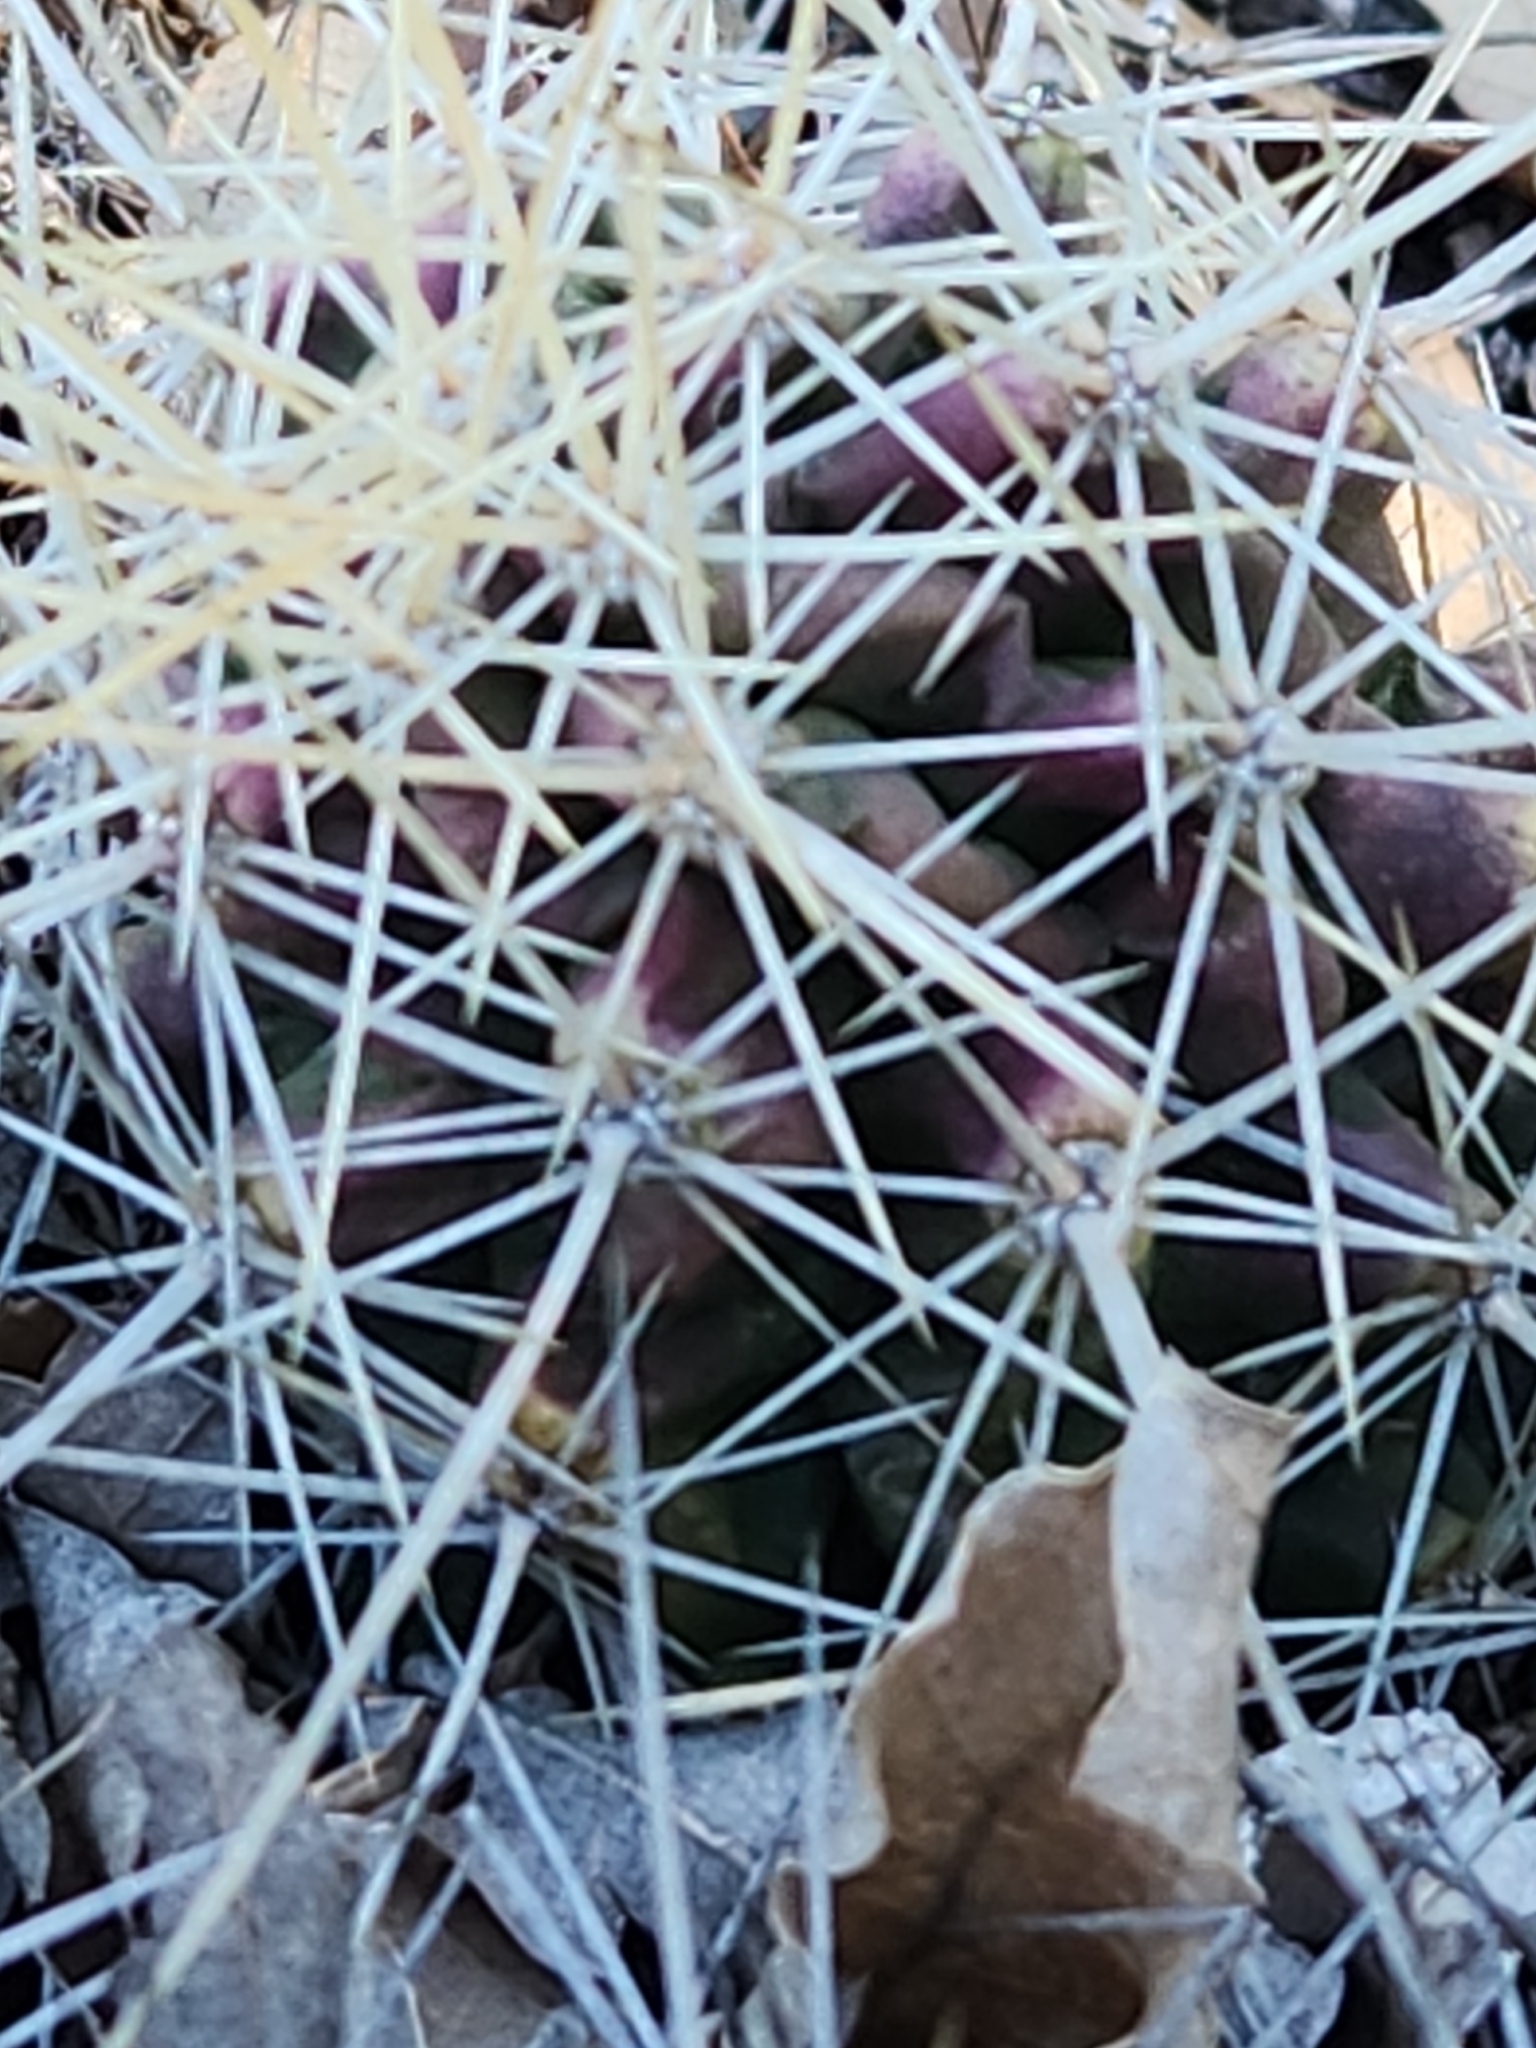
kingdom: Plantae
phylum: Tracheophyta
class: Magnoliopsida
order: Caryophyllales
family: Cactaceae
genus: Echinocereus
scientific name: Echinocereus enneacanthus
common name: Pitaya
